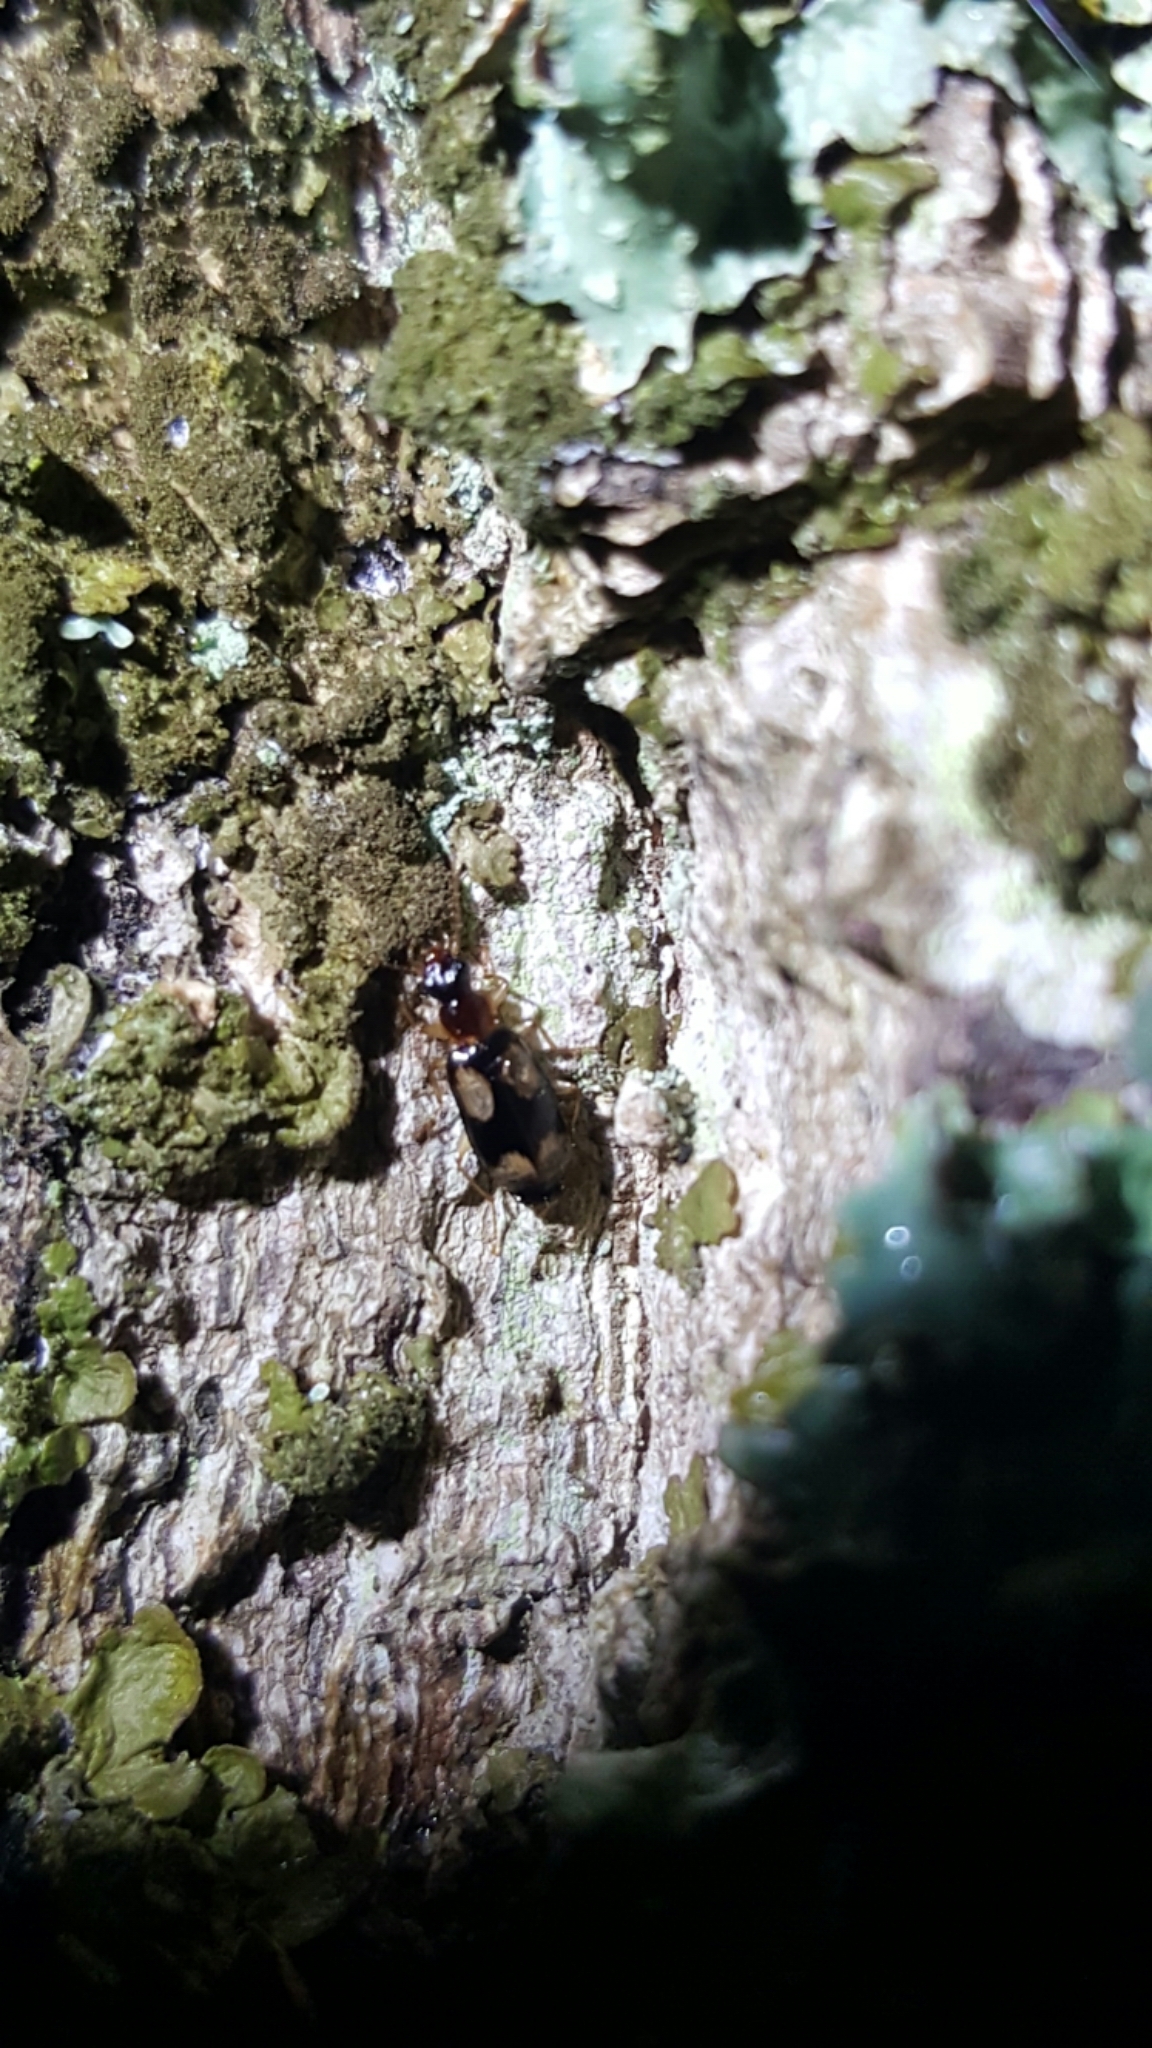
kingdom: Animalia
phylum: Arthropoda
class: Insecta
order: Coleoptera
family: Carabidae
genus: Dromius
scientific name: Dromius quadrimaculatus
